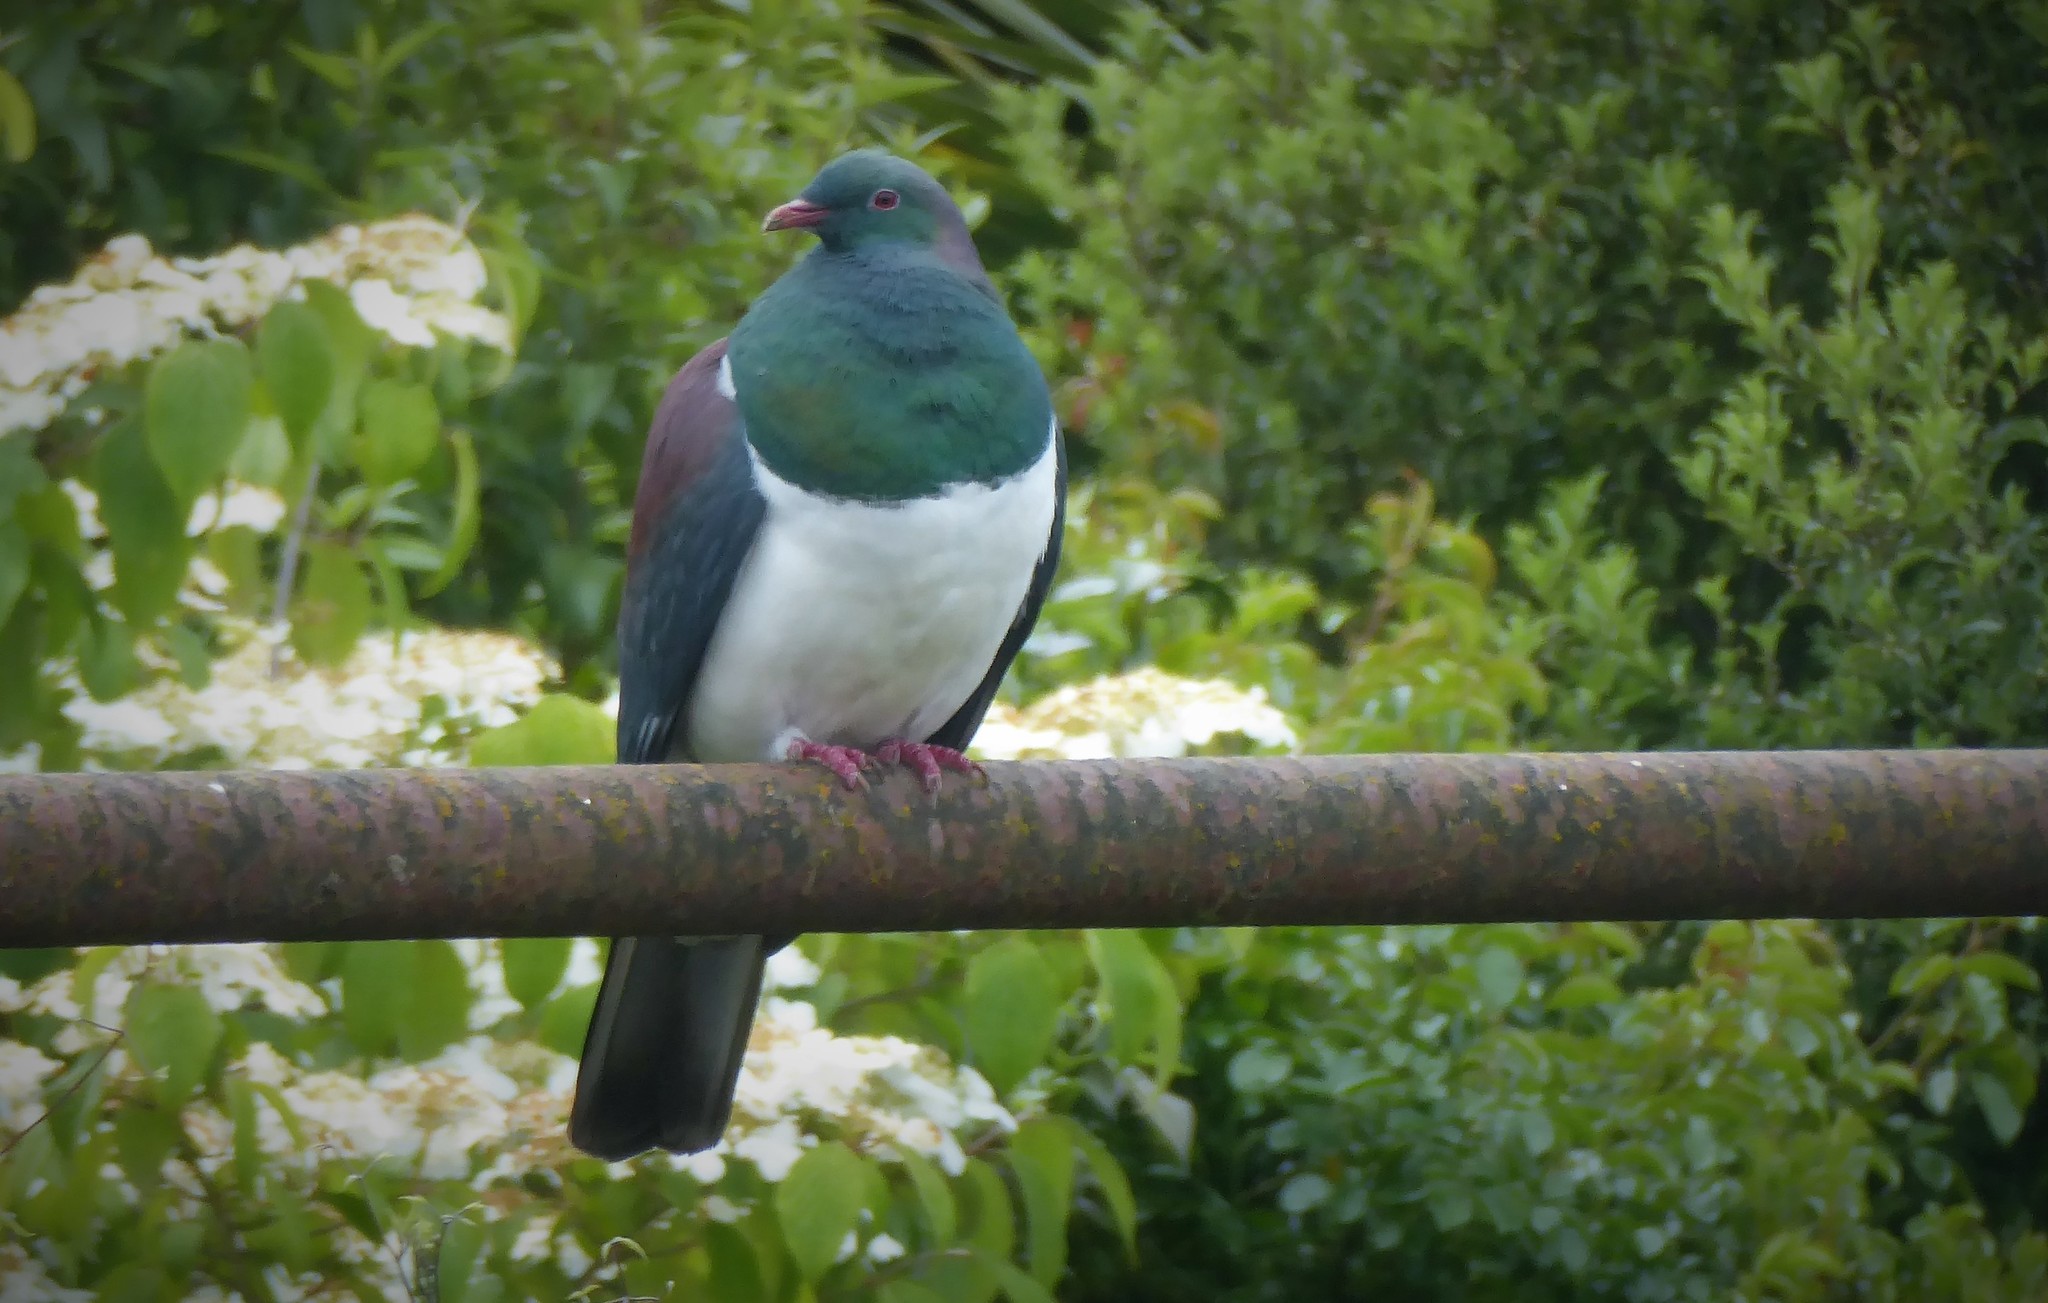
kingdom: Animalia
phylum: Chordata
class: Aves
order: Columbiformes
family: Columbidae
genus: Hemiphaga
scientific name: Hemiphaga novaeseelandiae
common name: New zealand pigeon
